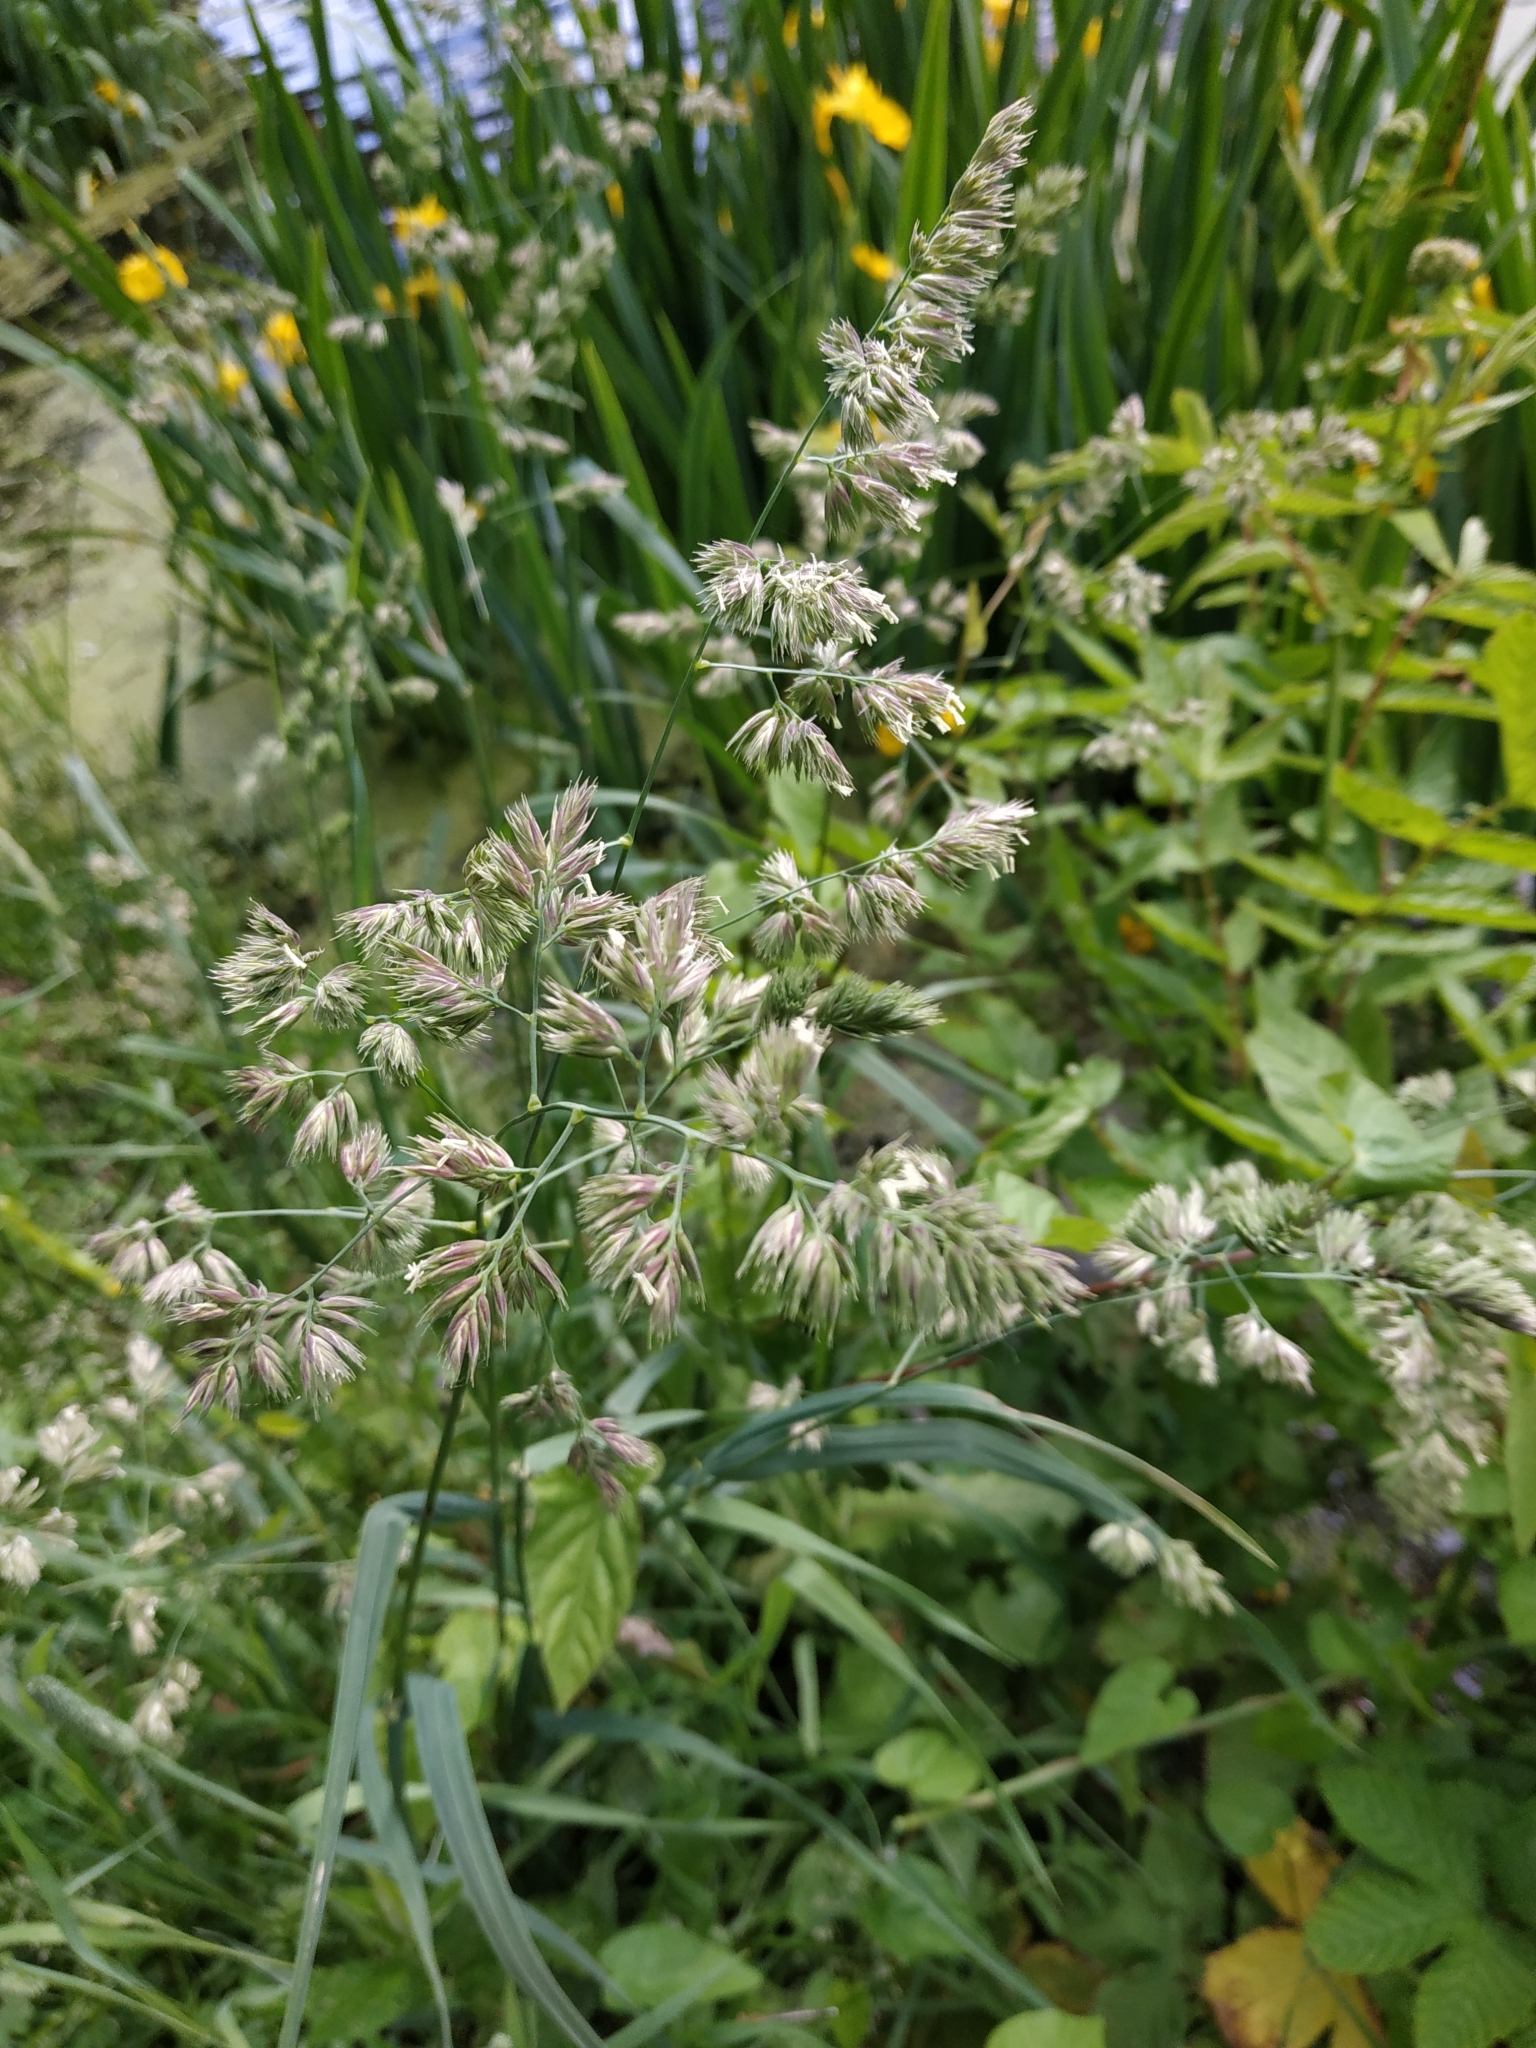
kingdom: Plantae
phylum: Tracheophyta
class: Liliopsida
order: Poales
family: Poaceae
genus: Dactylis
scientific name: Dactylis glomerata
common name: Orchardgrass
